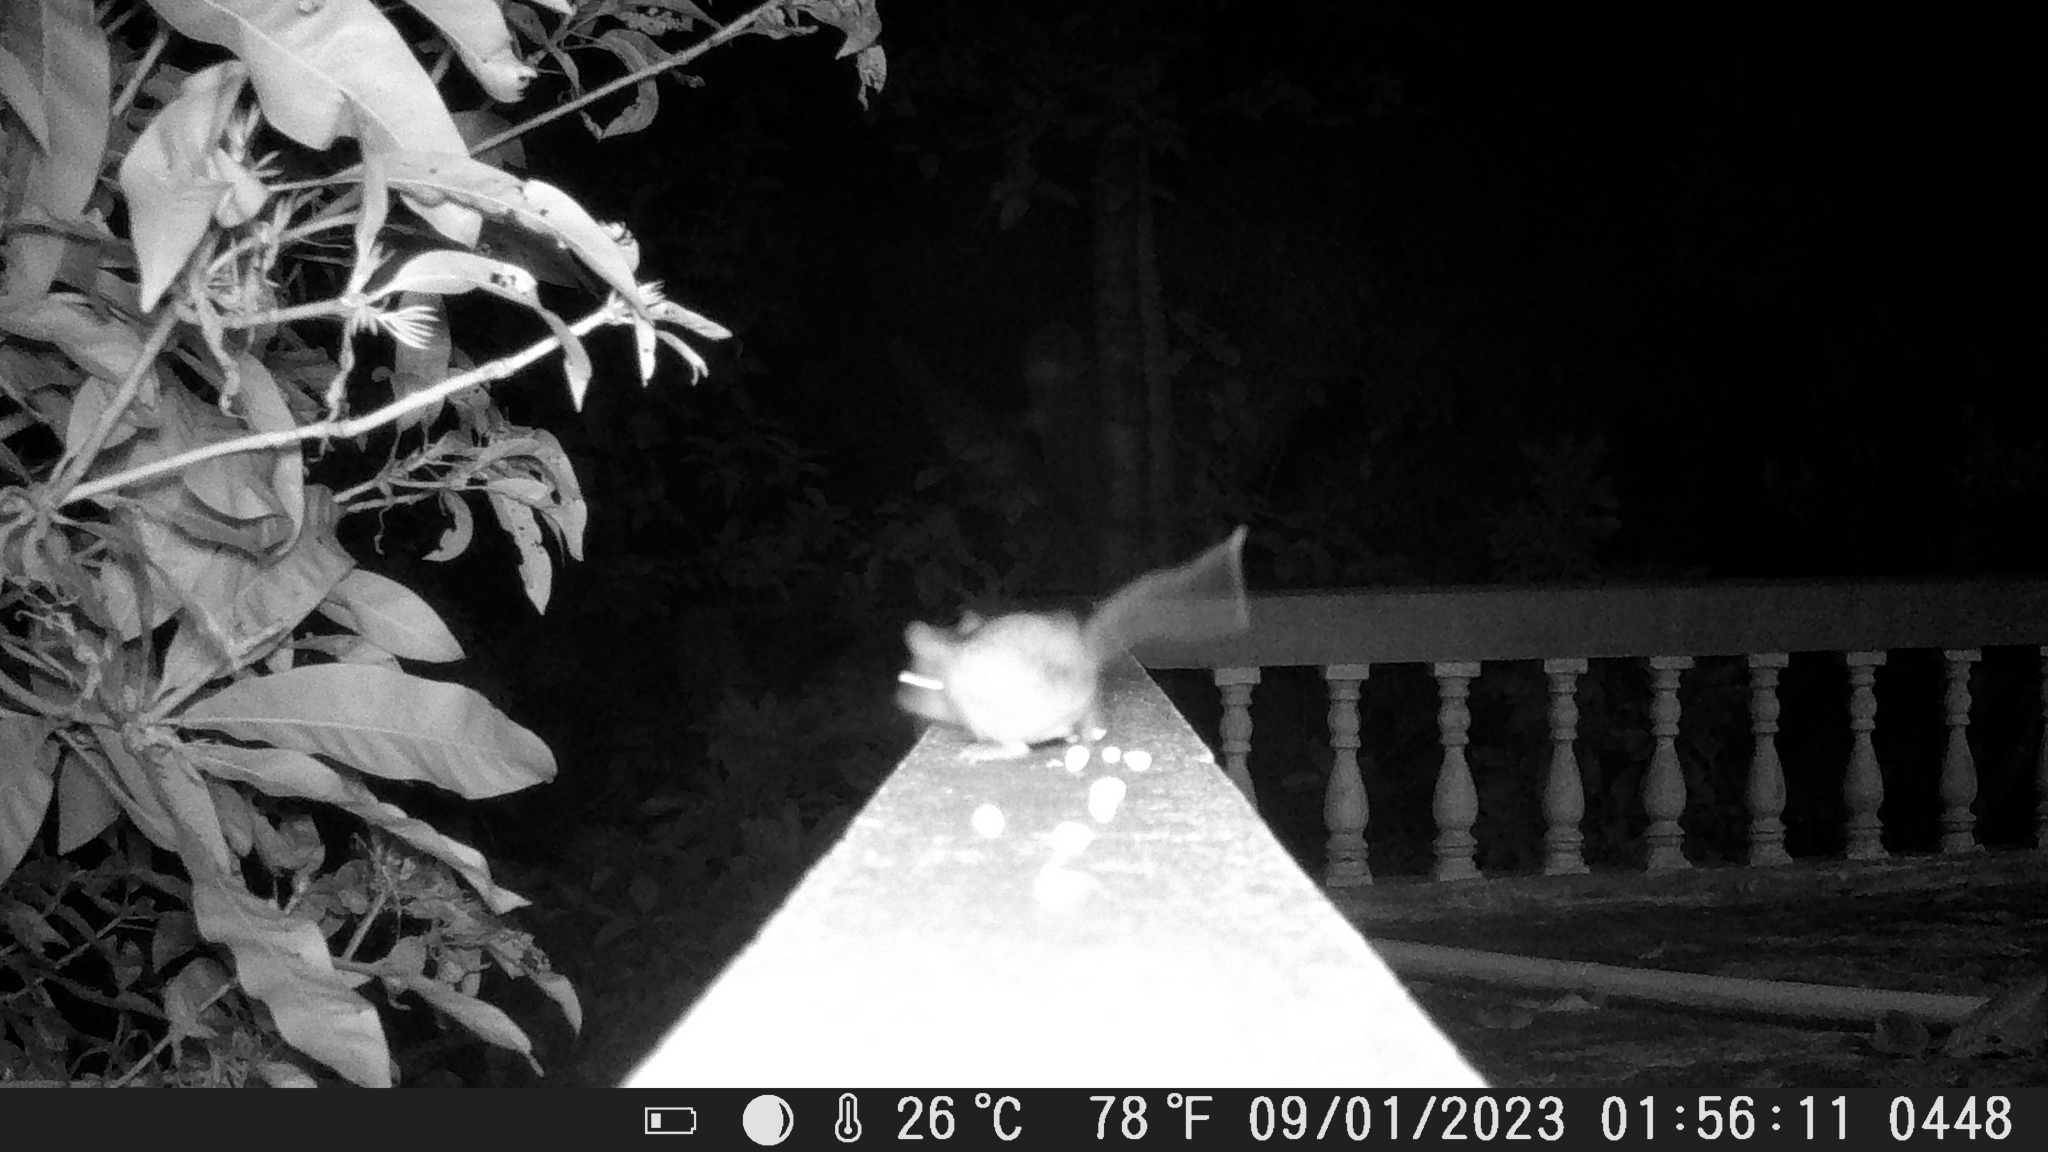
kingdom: Animalia
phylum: Chordata
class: Mammalia
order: Rodentia
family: Muridae
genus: Rattus
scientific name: Rattus rattus
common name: Black rat
